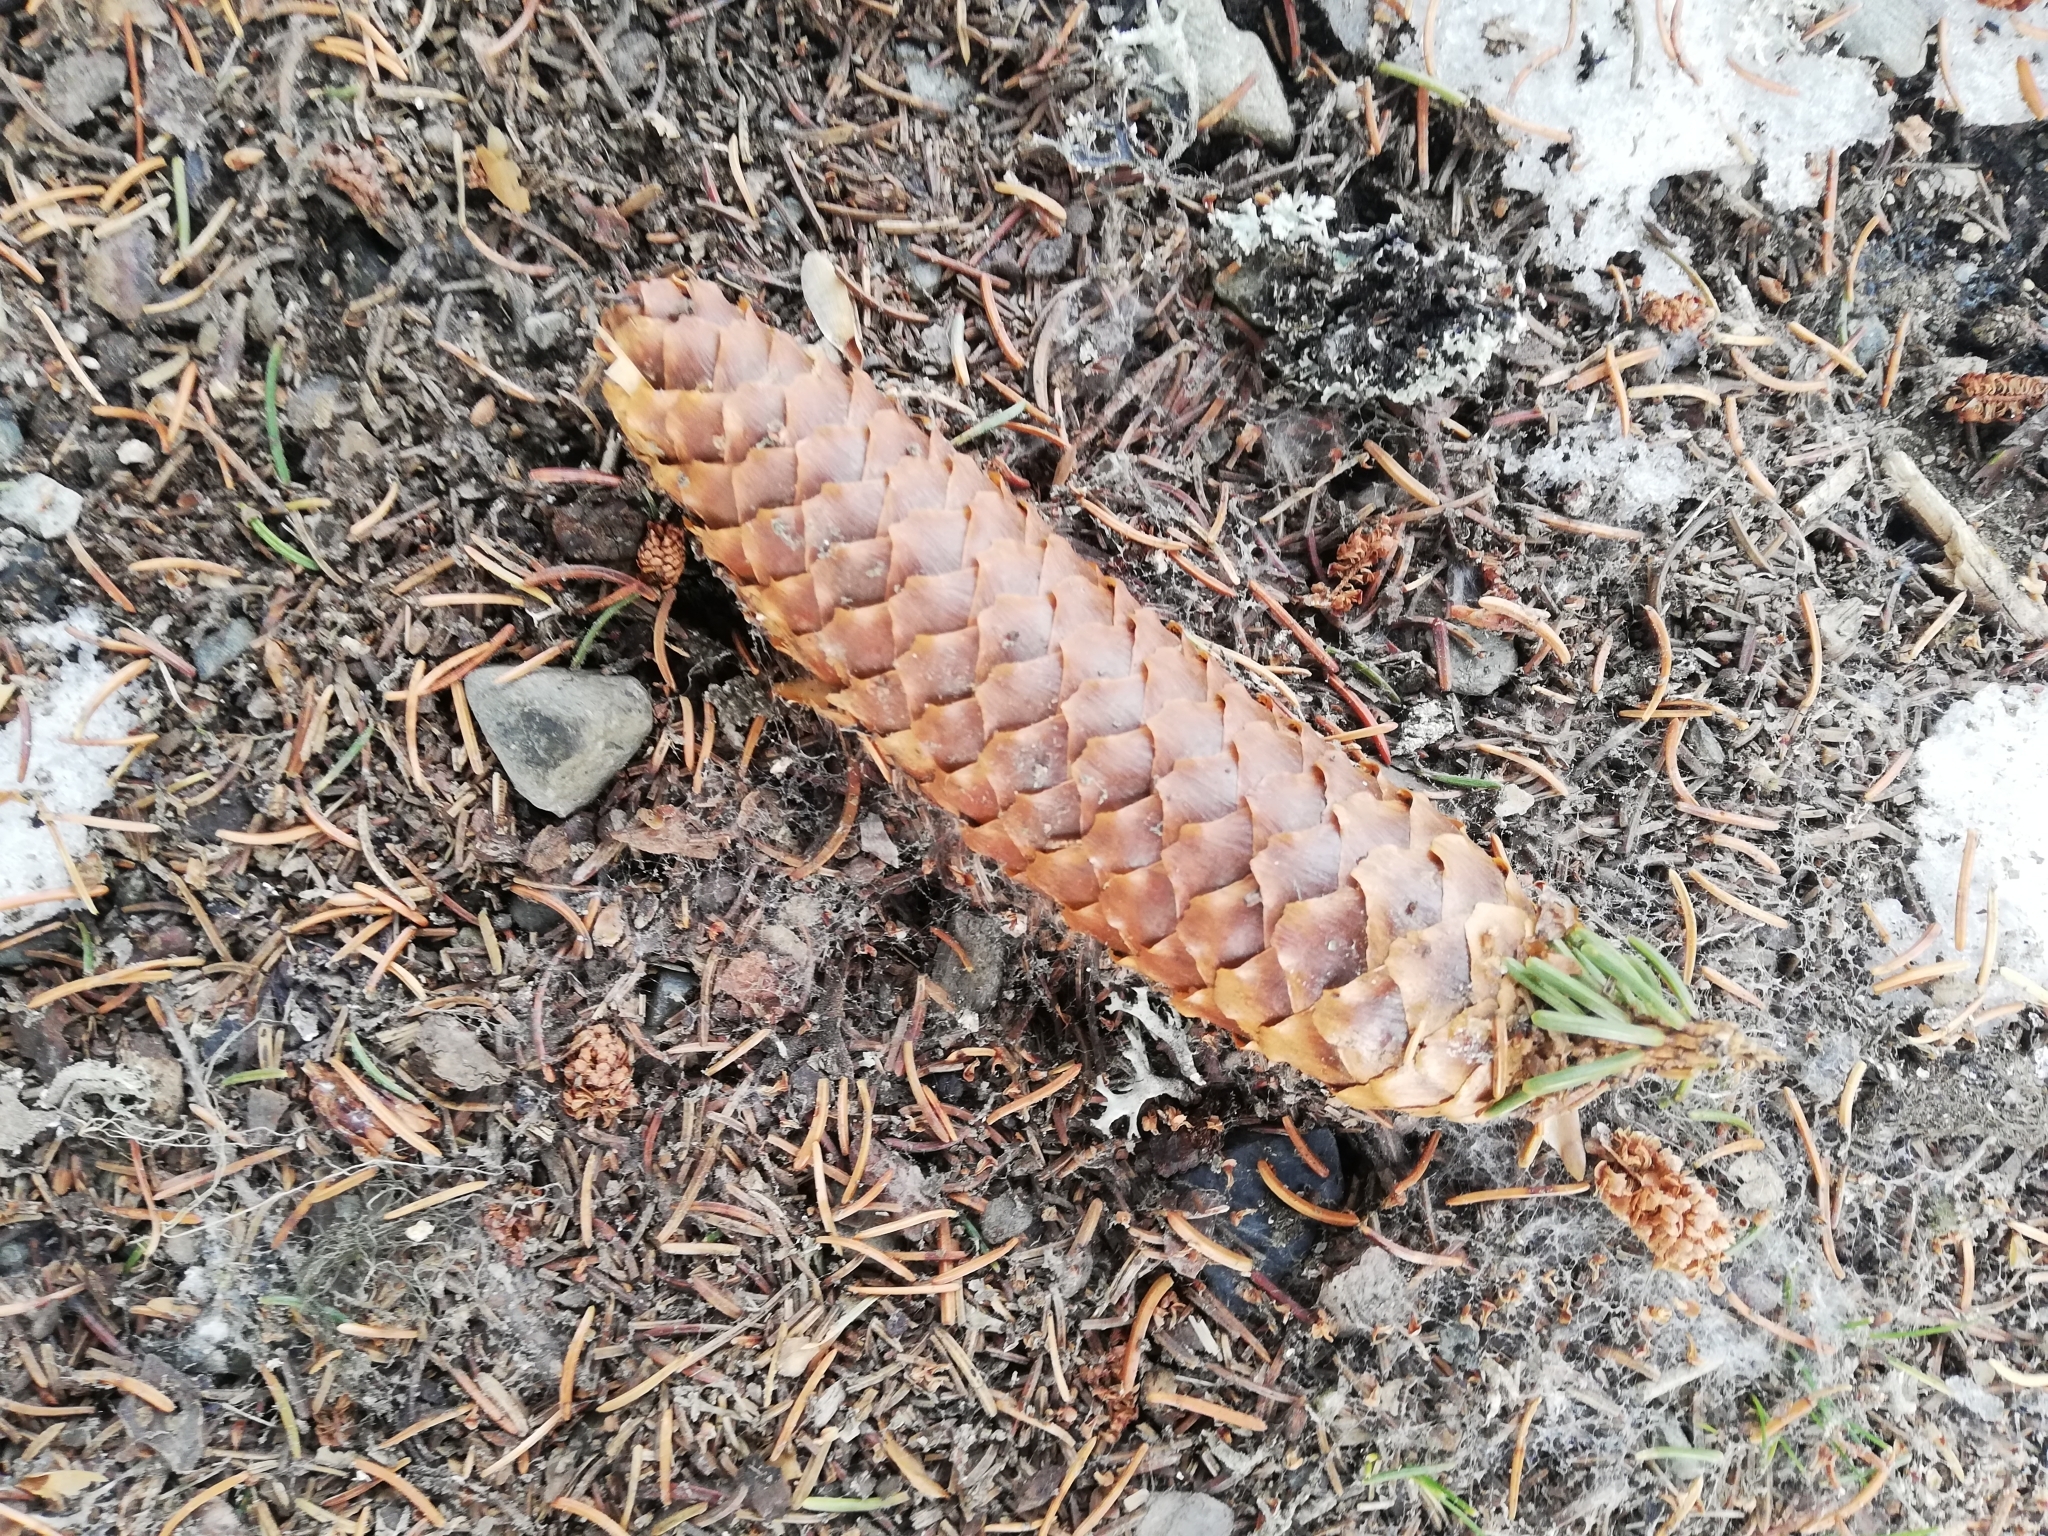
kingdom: Plantae
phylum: Tracheophyta
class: Pinopsida
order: Pinales
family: Pinaceae
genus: Picea
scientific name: Picea abies
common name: Norway spruce
